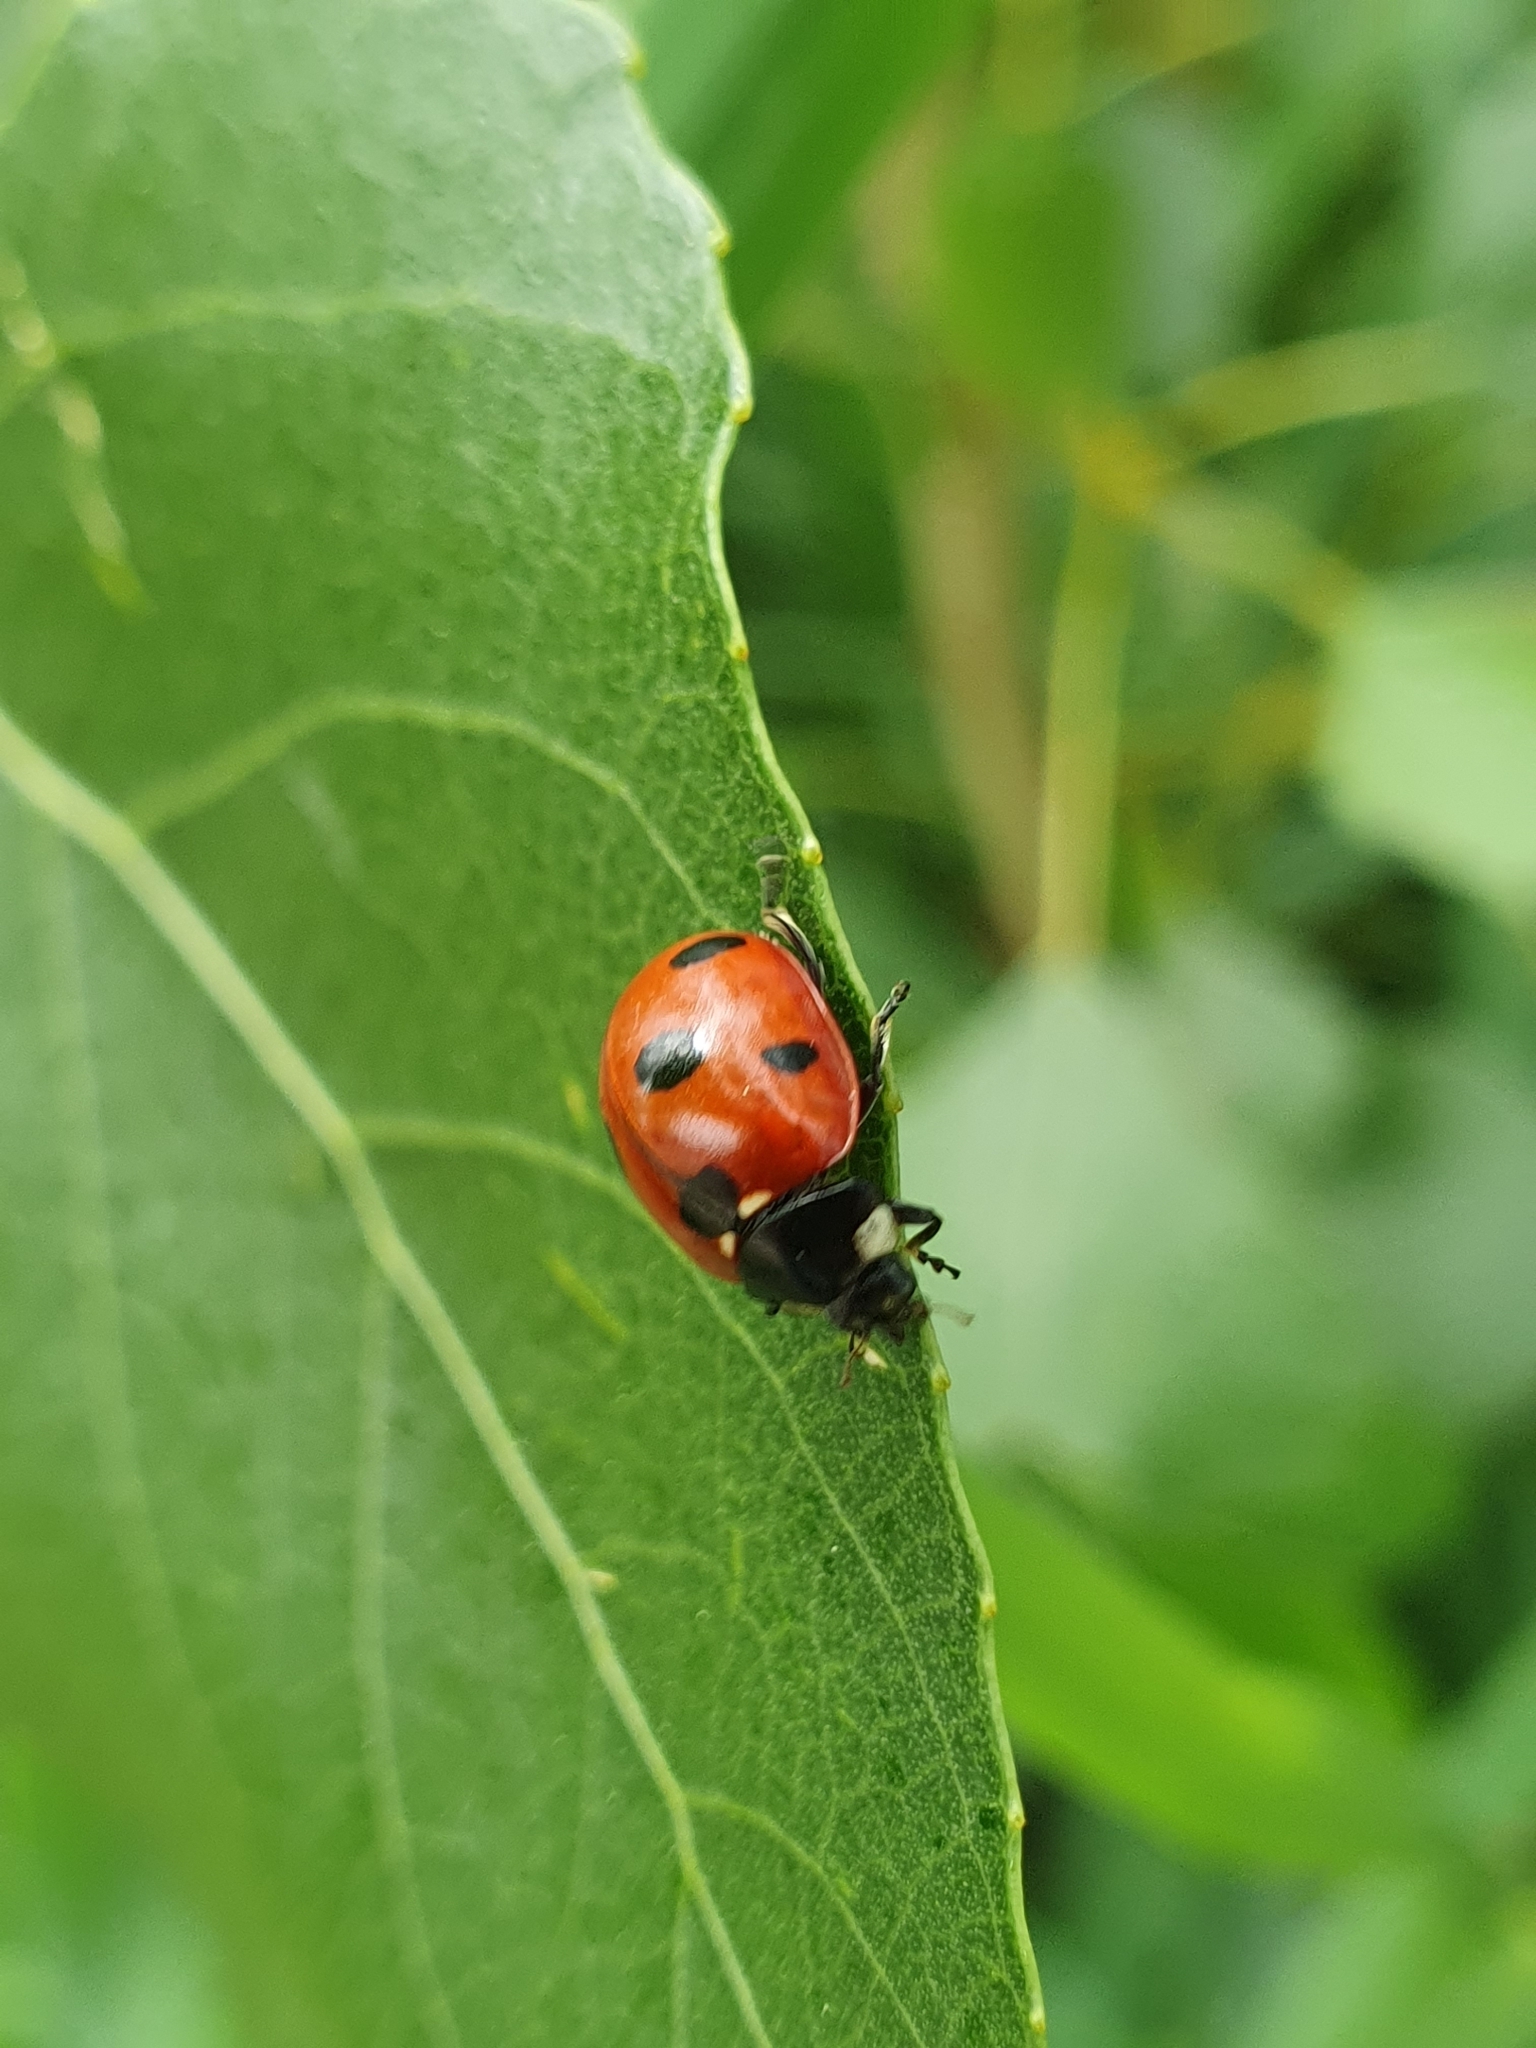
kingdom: Animalia
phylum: Arthropoda
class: Insecta
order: Coleoptera
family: Coccinellidae
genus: Coccinella
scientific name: Coccinella septempunctata
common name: Sevenspotted lady beetle
